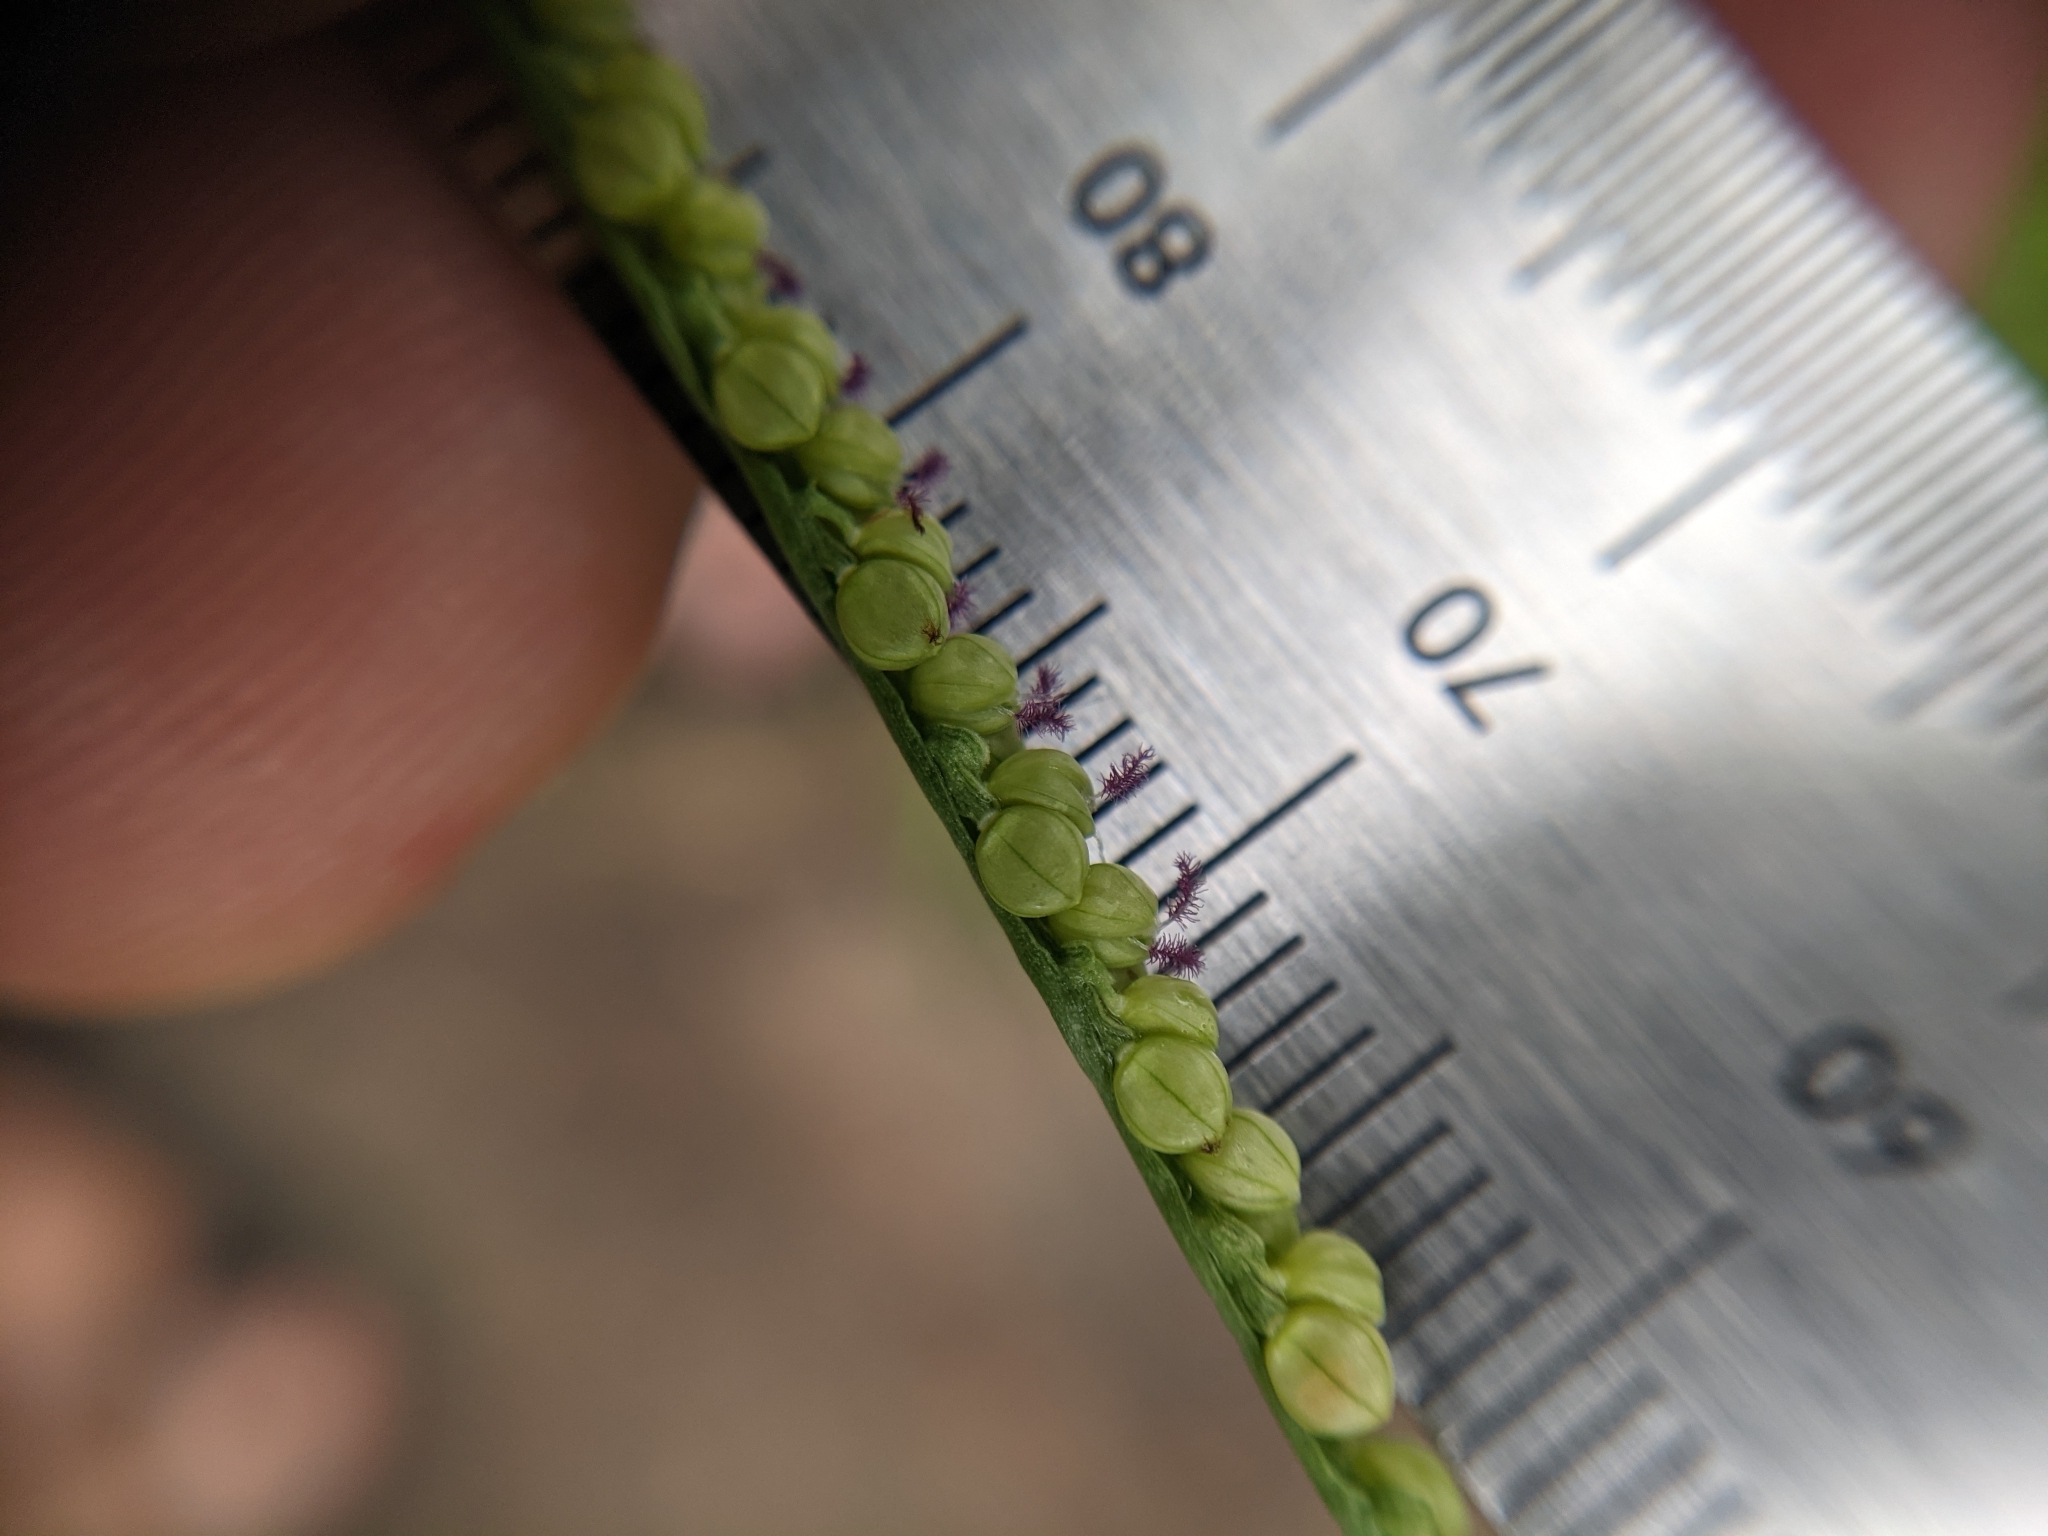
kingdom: Plantae
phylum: Tracheophyta
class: Liliopsida
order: Poales
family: Poaceae
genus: Paspalum
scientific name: Paspalum setaceum
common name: Slender paspalum
